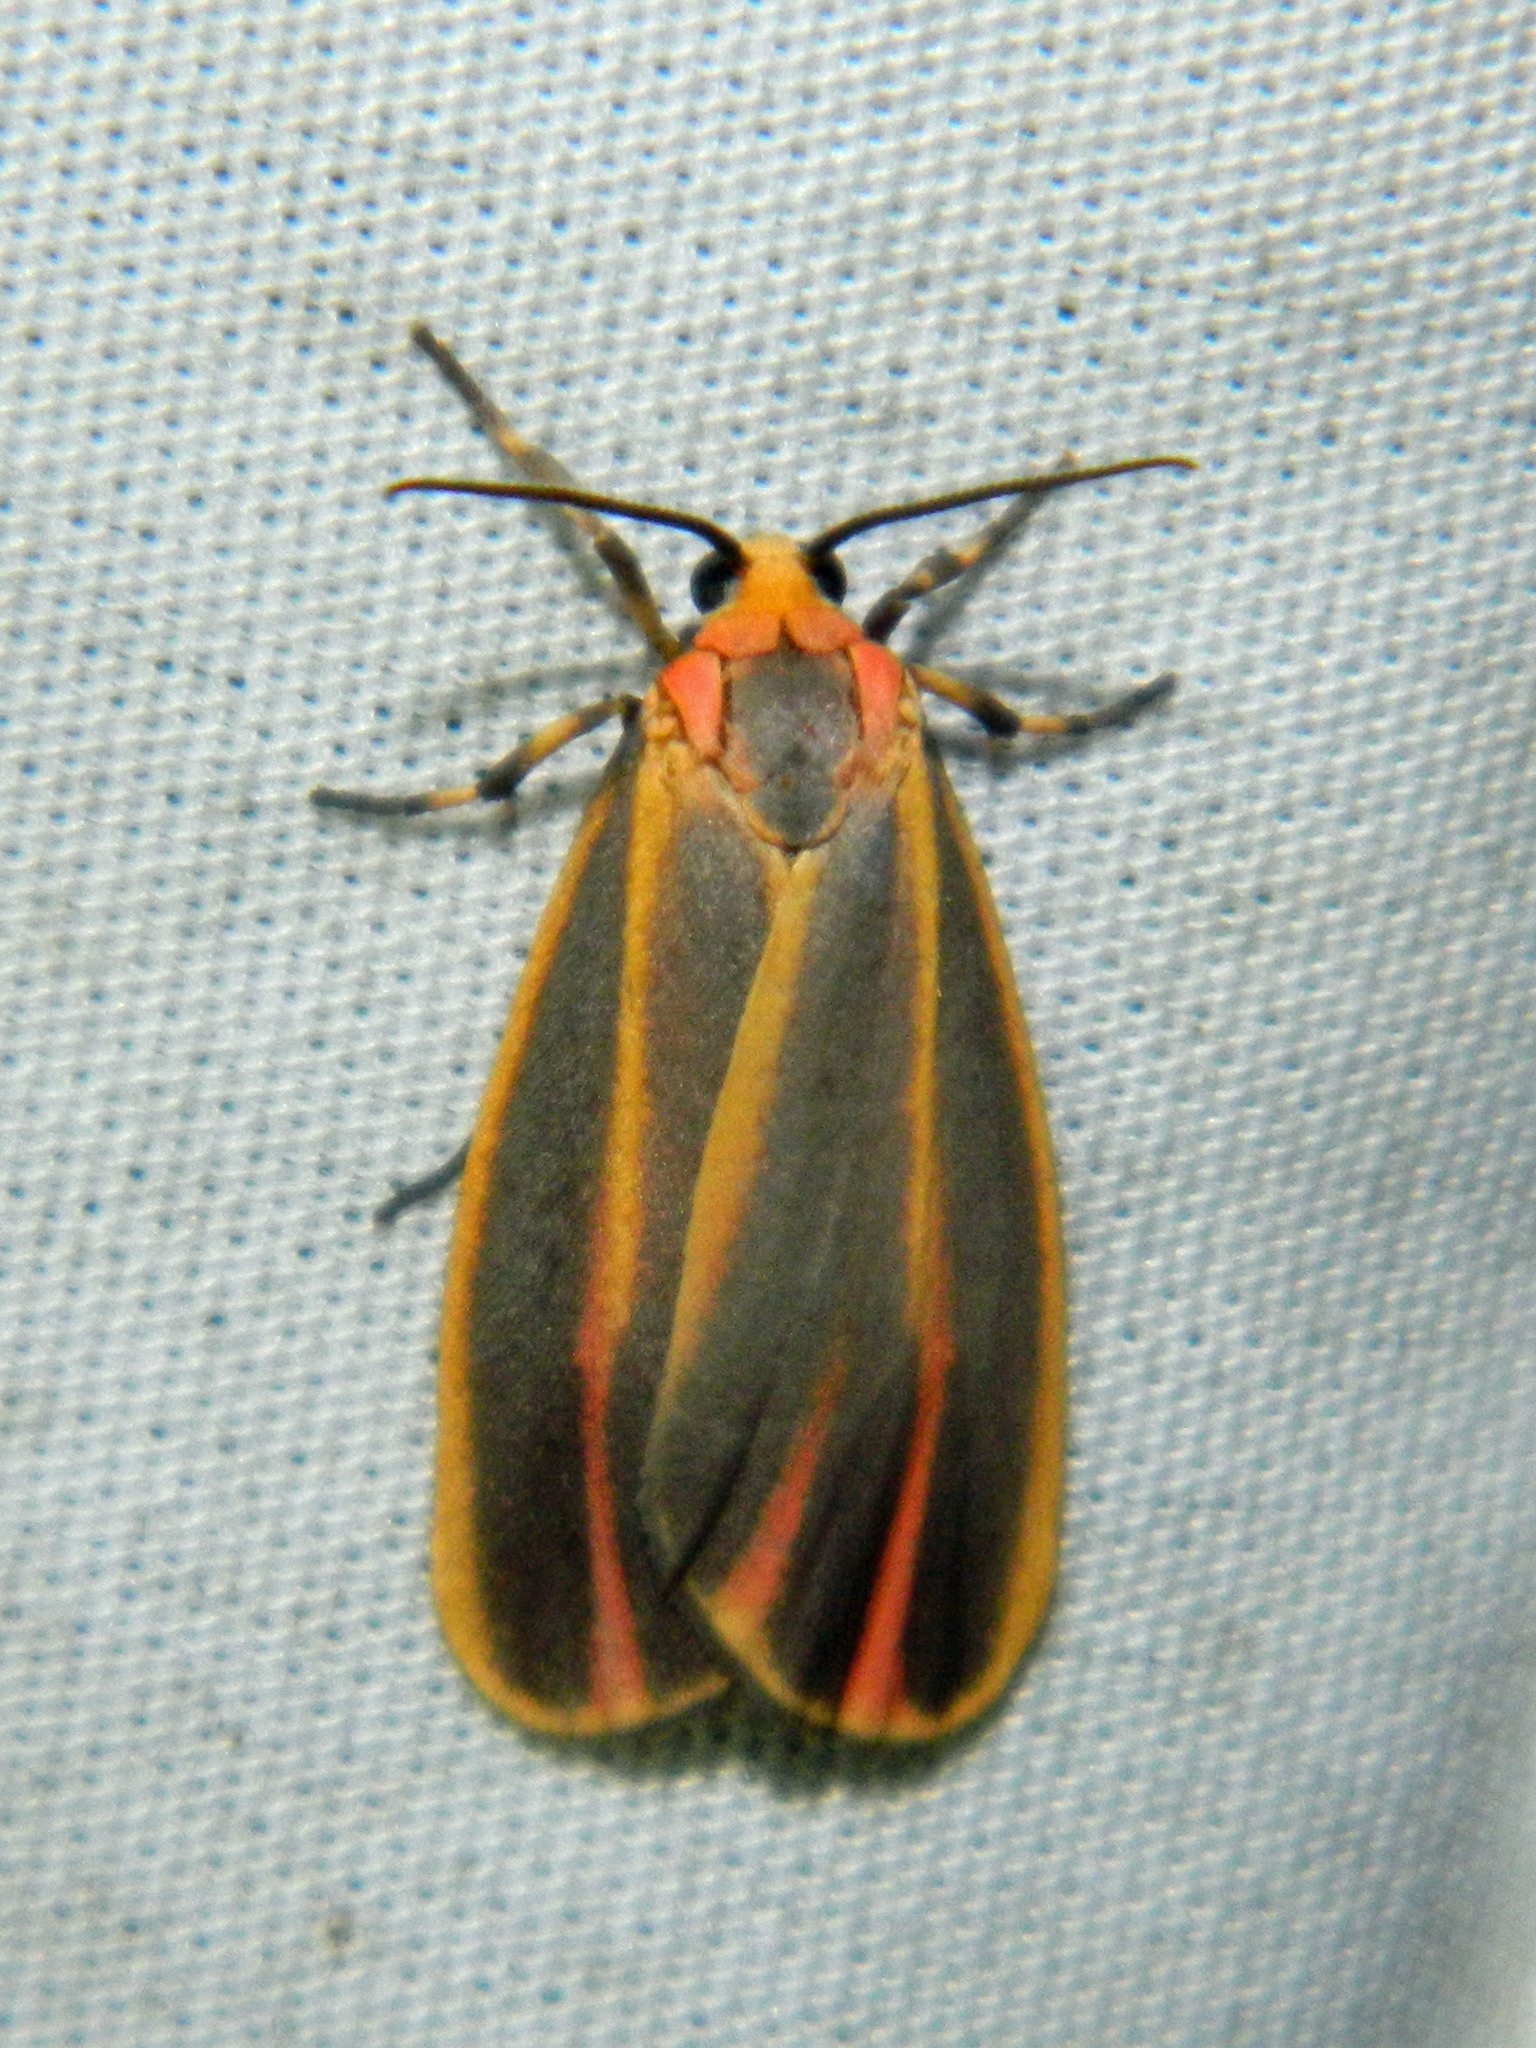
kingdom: Animalia
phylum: Arthropoda
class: Insecta
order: Lepidoptera
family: Erebidae
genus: Hypoprepia
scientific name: Hypoprepia fucosa
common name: Painted lichen moth
